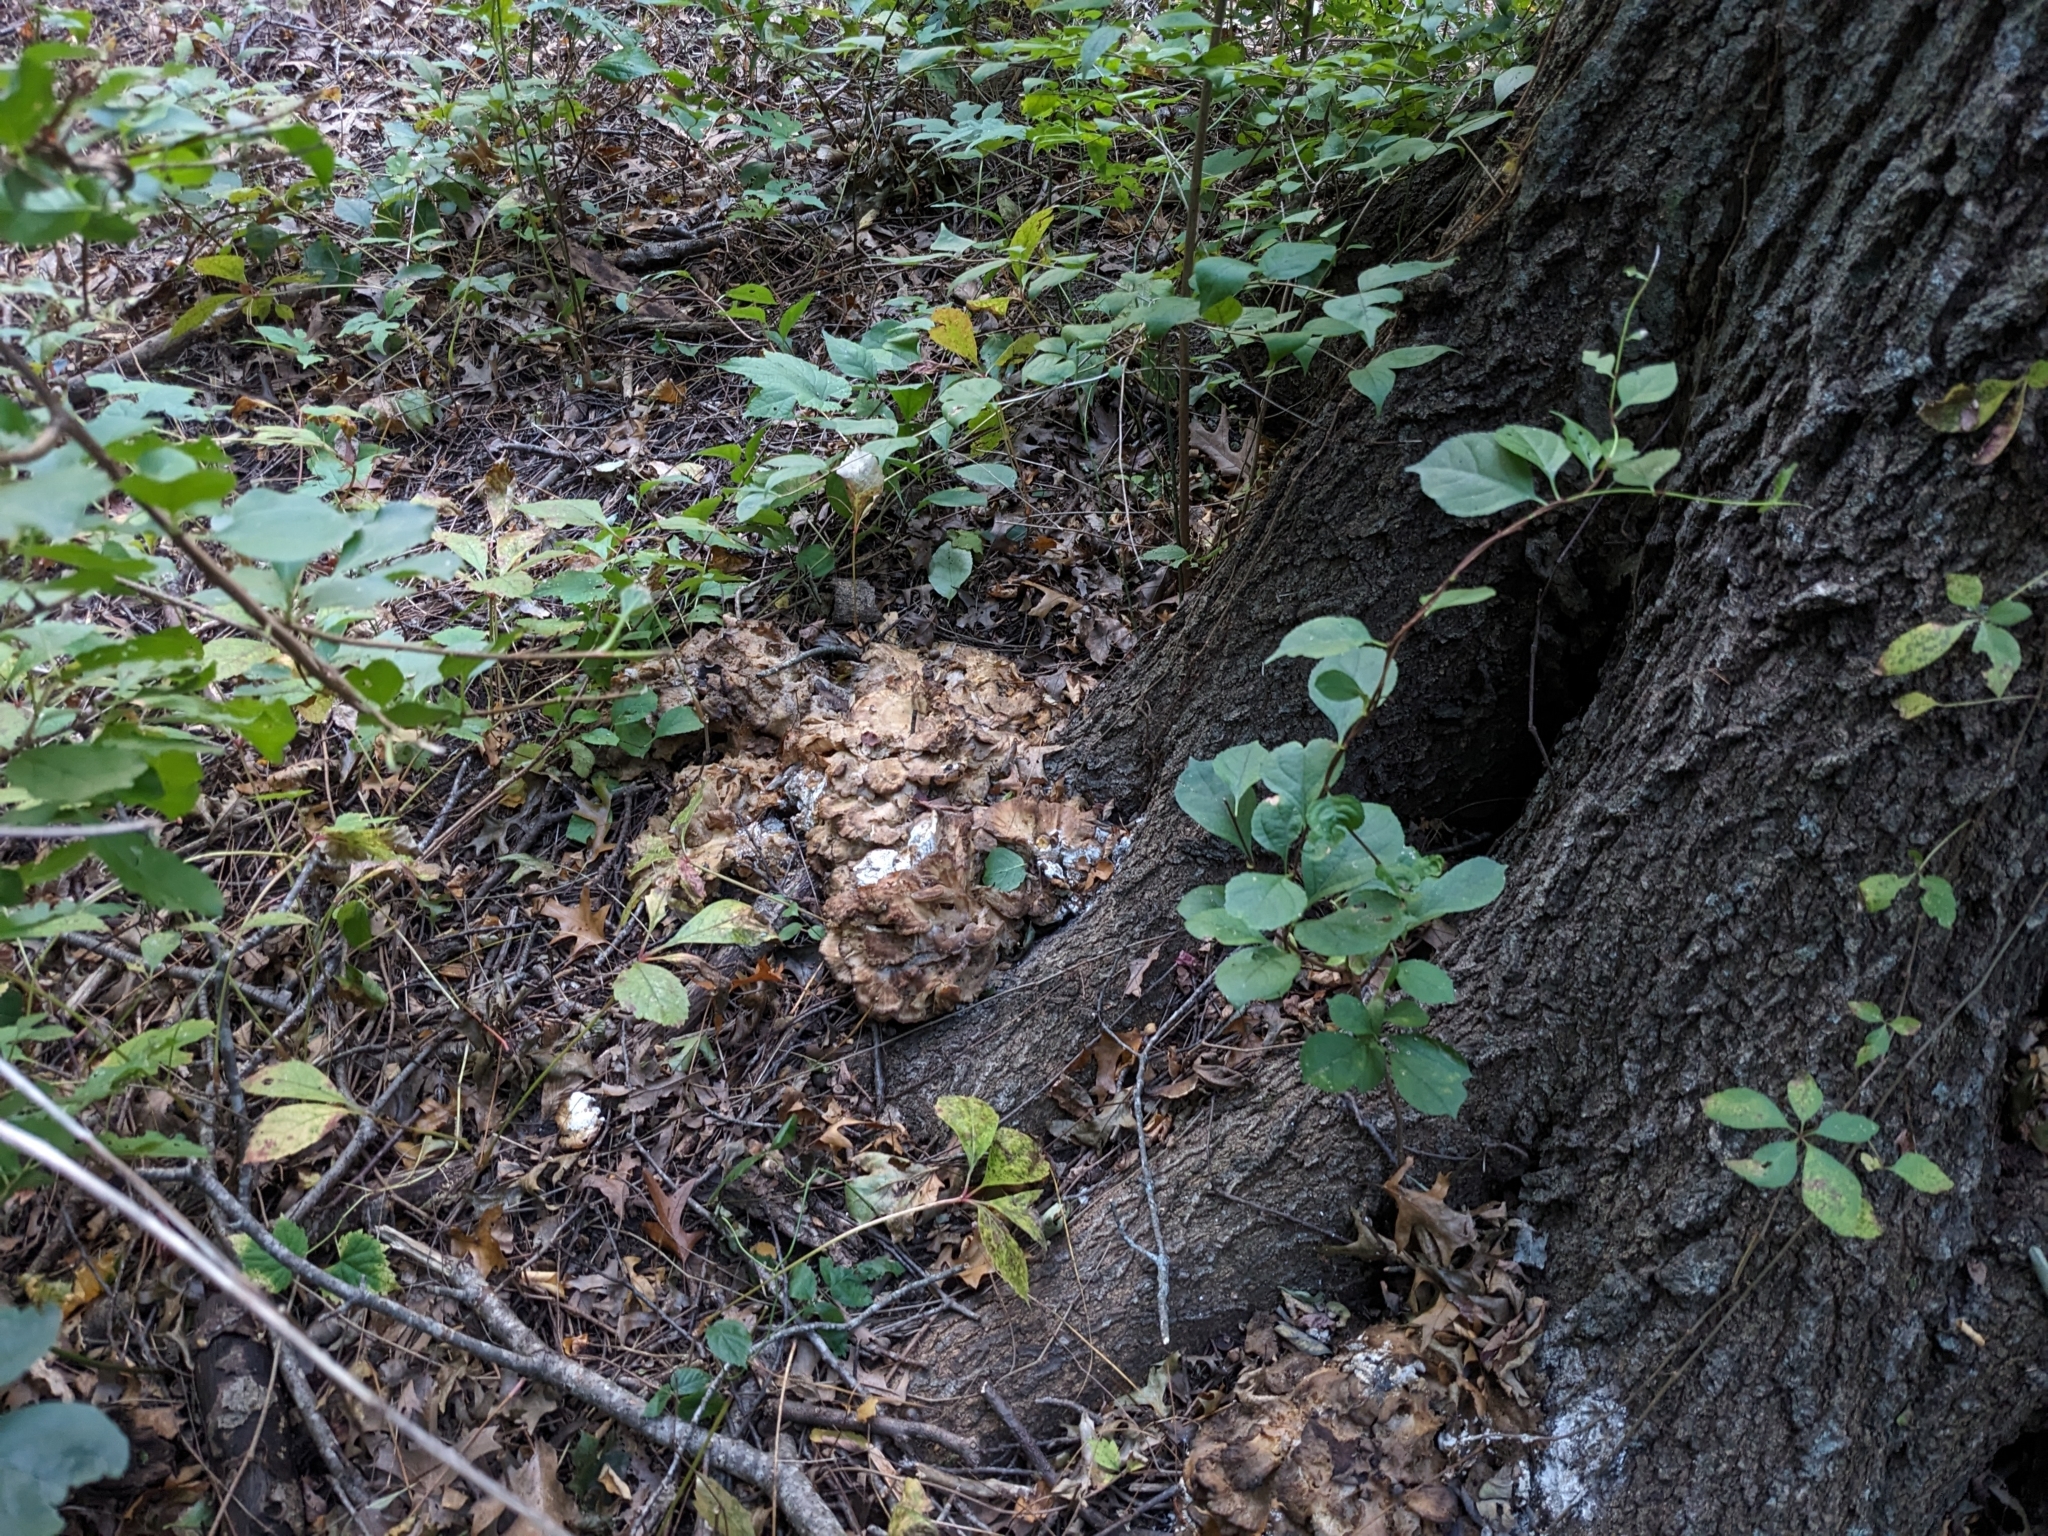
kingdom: Fungi
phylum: Basidiomycota
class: Agaricomycetes
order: Polyporales
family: Grifolaceae
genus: Grifola
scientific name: Grifola frondosa
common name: Hen of the woods
